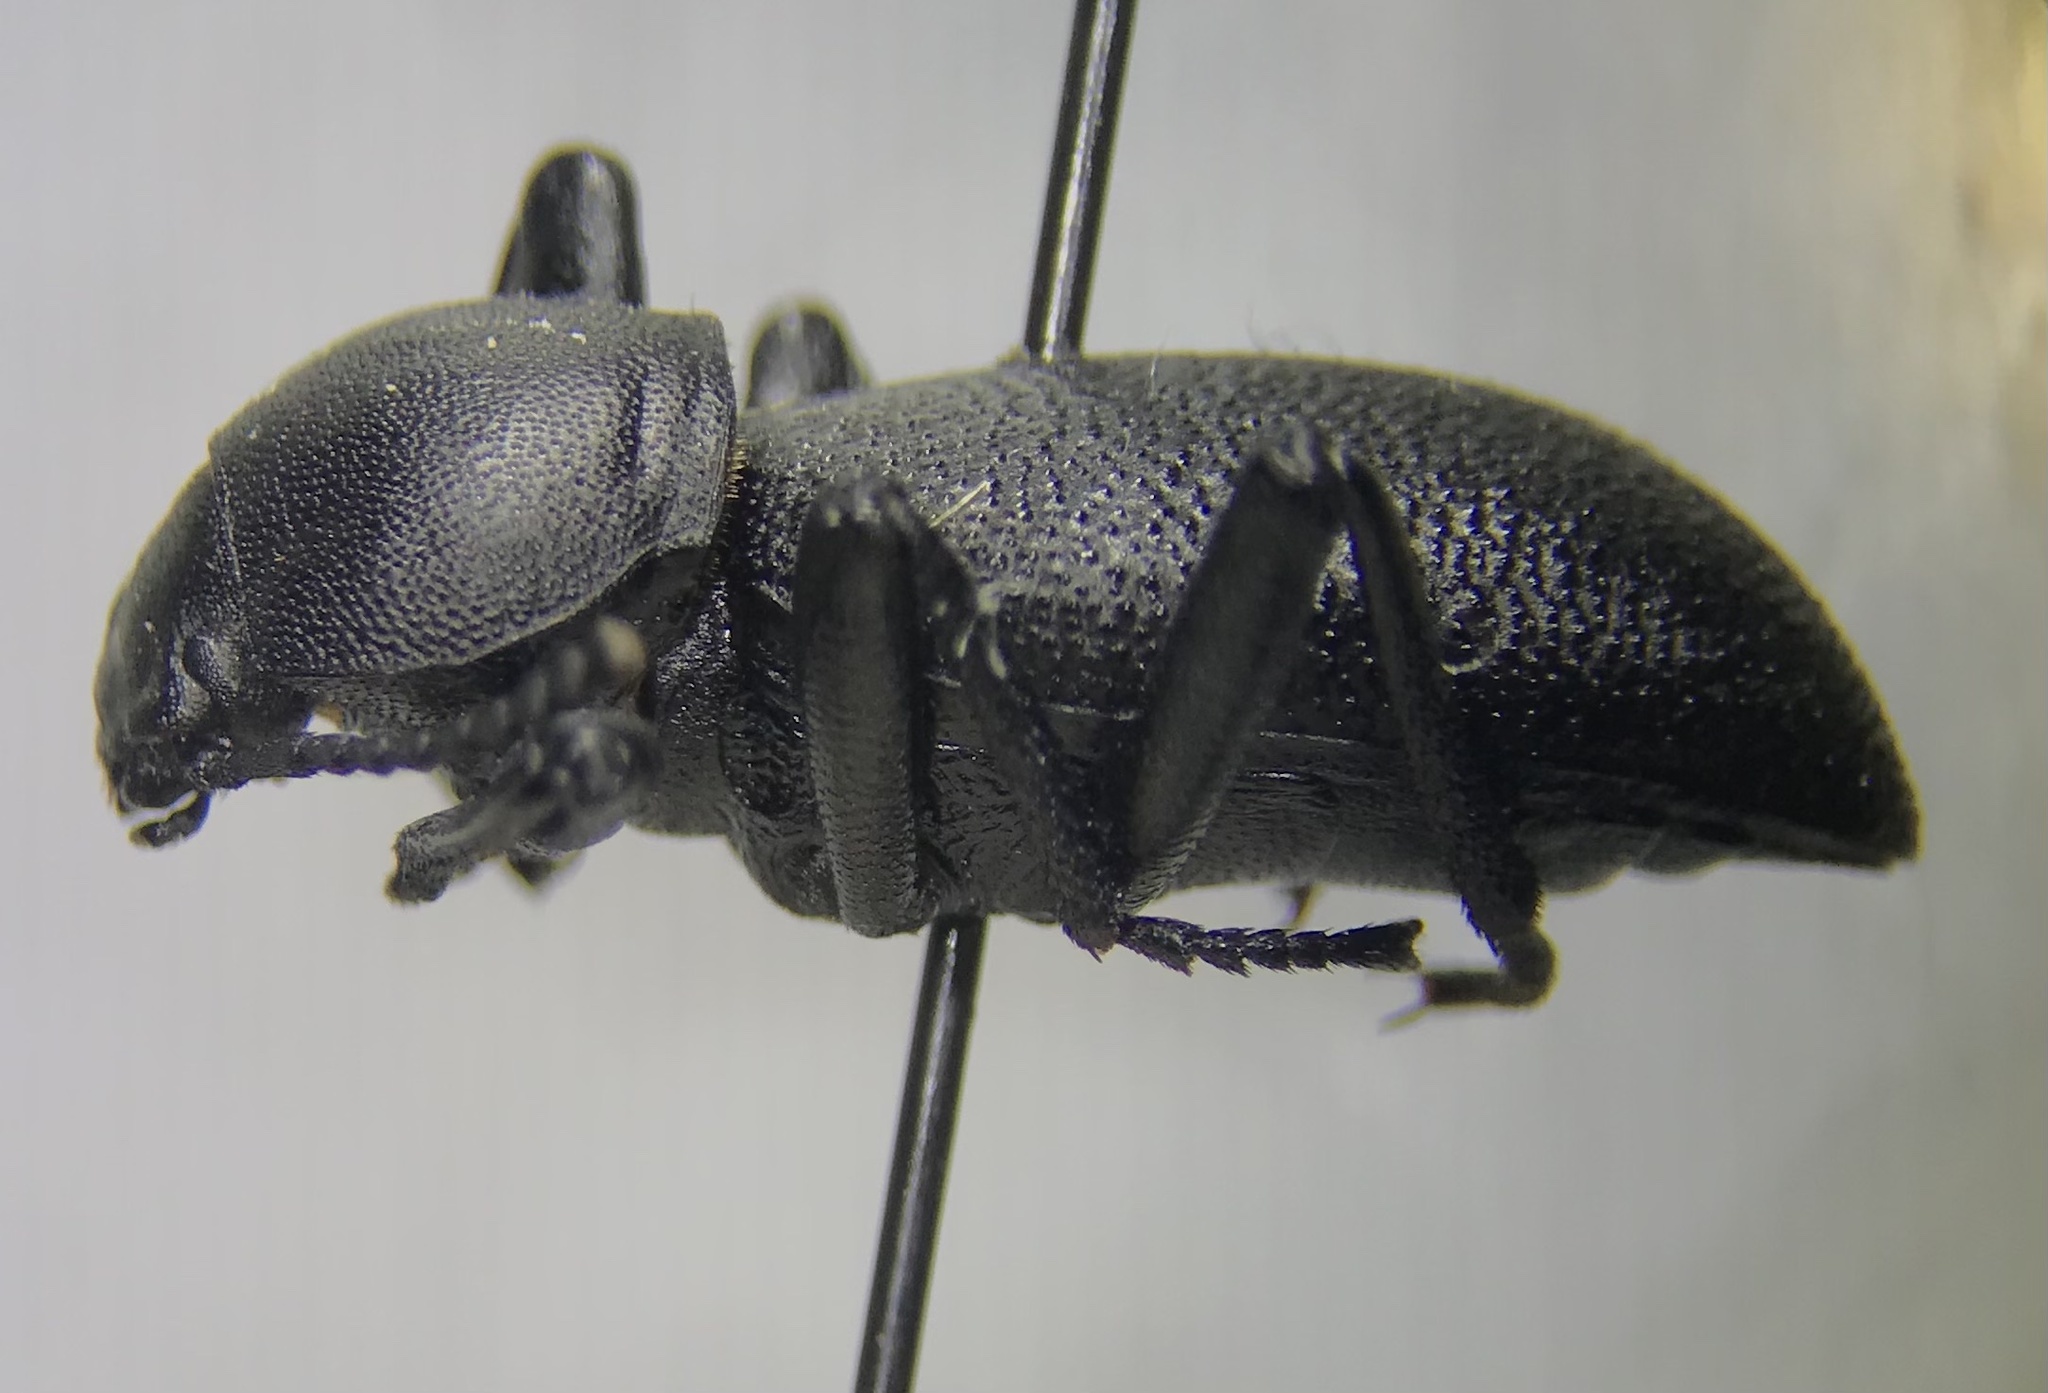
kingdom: Animalia
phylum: Arthropoda
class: Insecta
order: Coleoptera
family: Tenebrionidae
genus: Eleodes
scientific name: Eleodes lariversi
